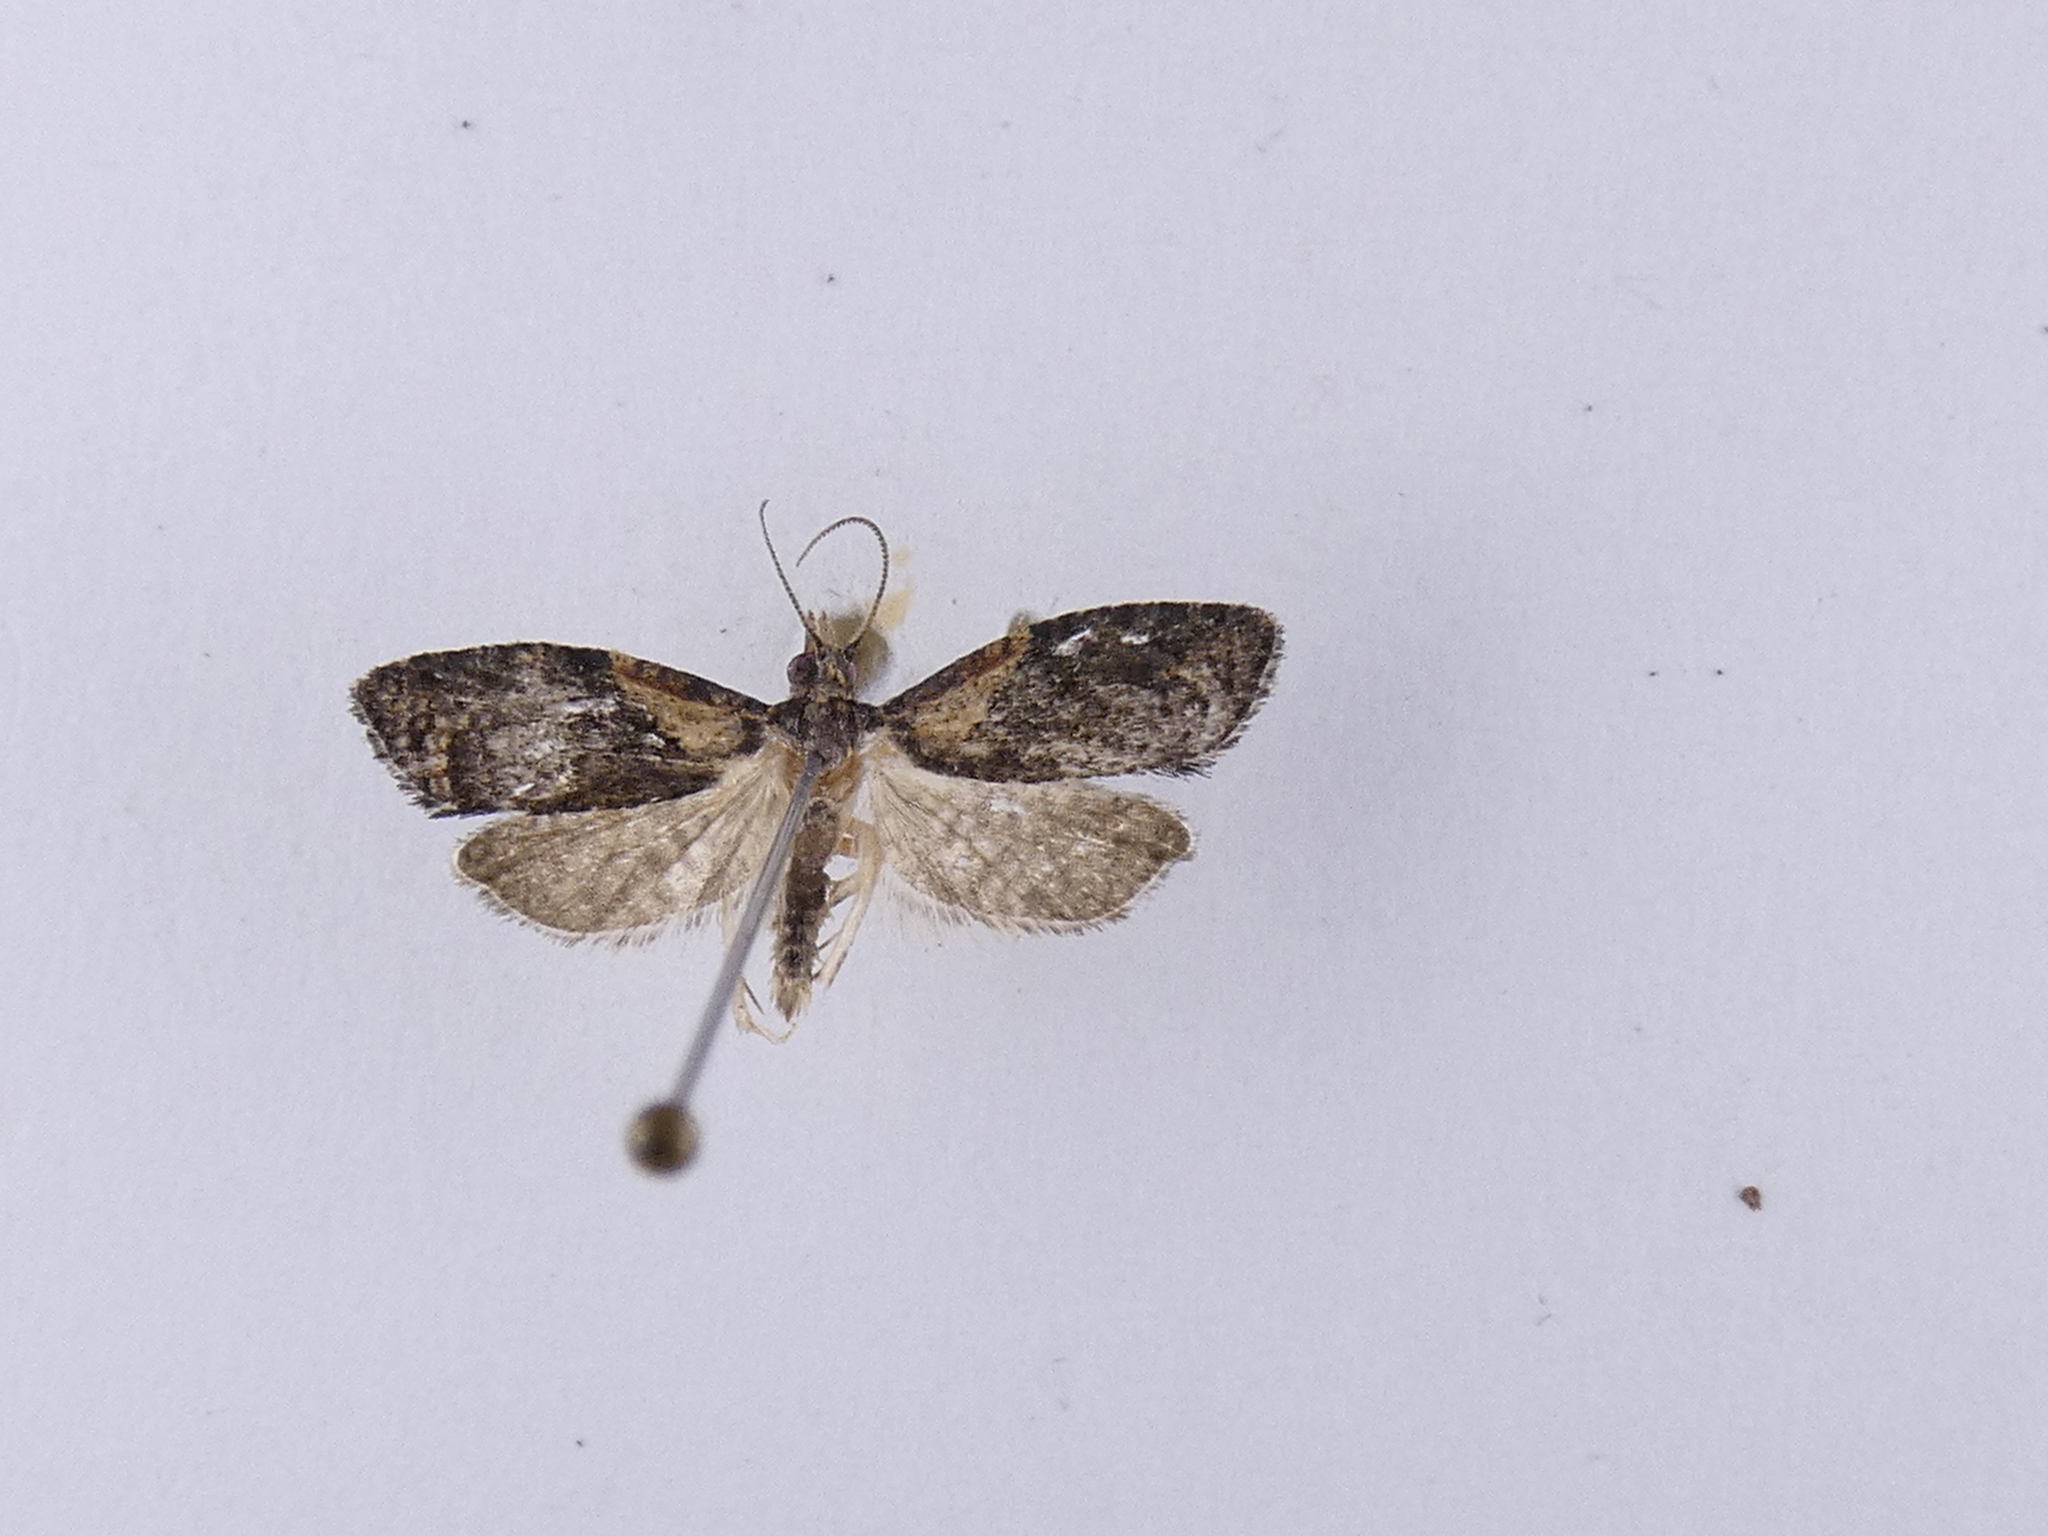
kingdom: Animalia
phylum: Arthropoda
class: Insecta
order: Lepidoptera
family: Tortricidae
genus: Capua
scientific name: Capua intractana
